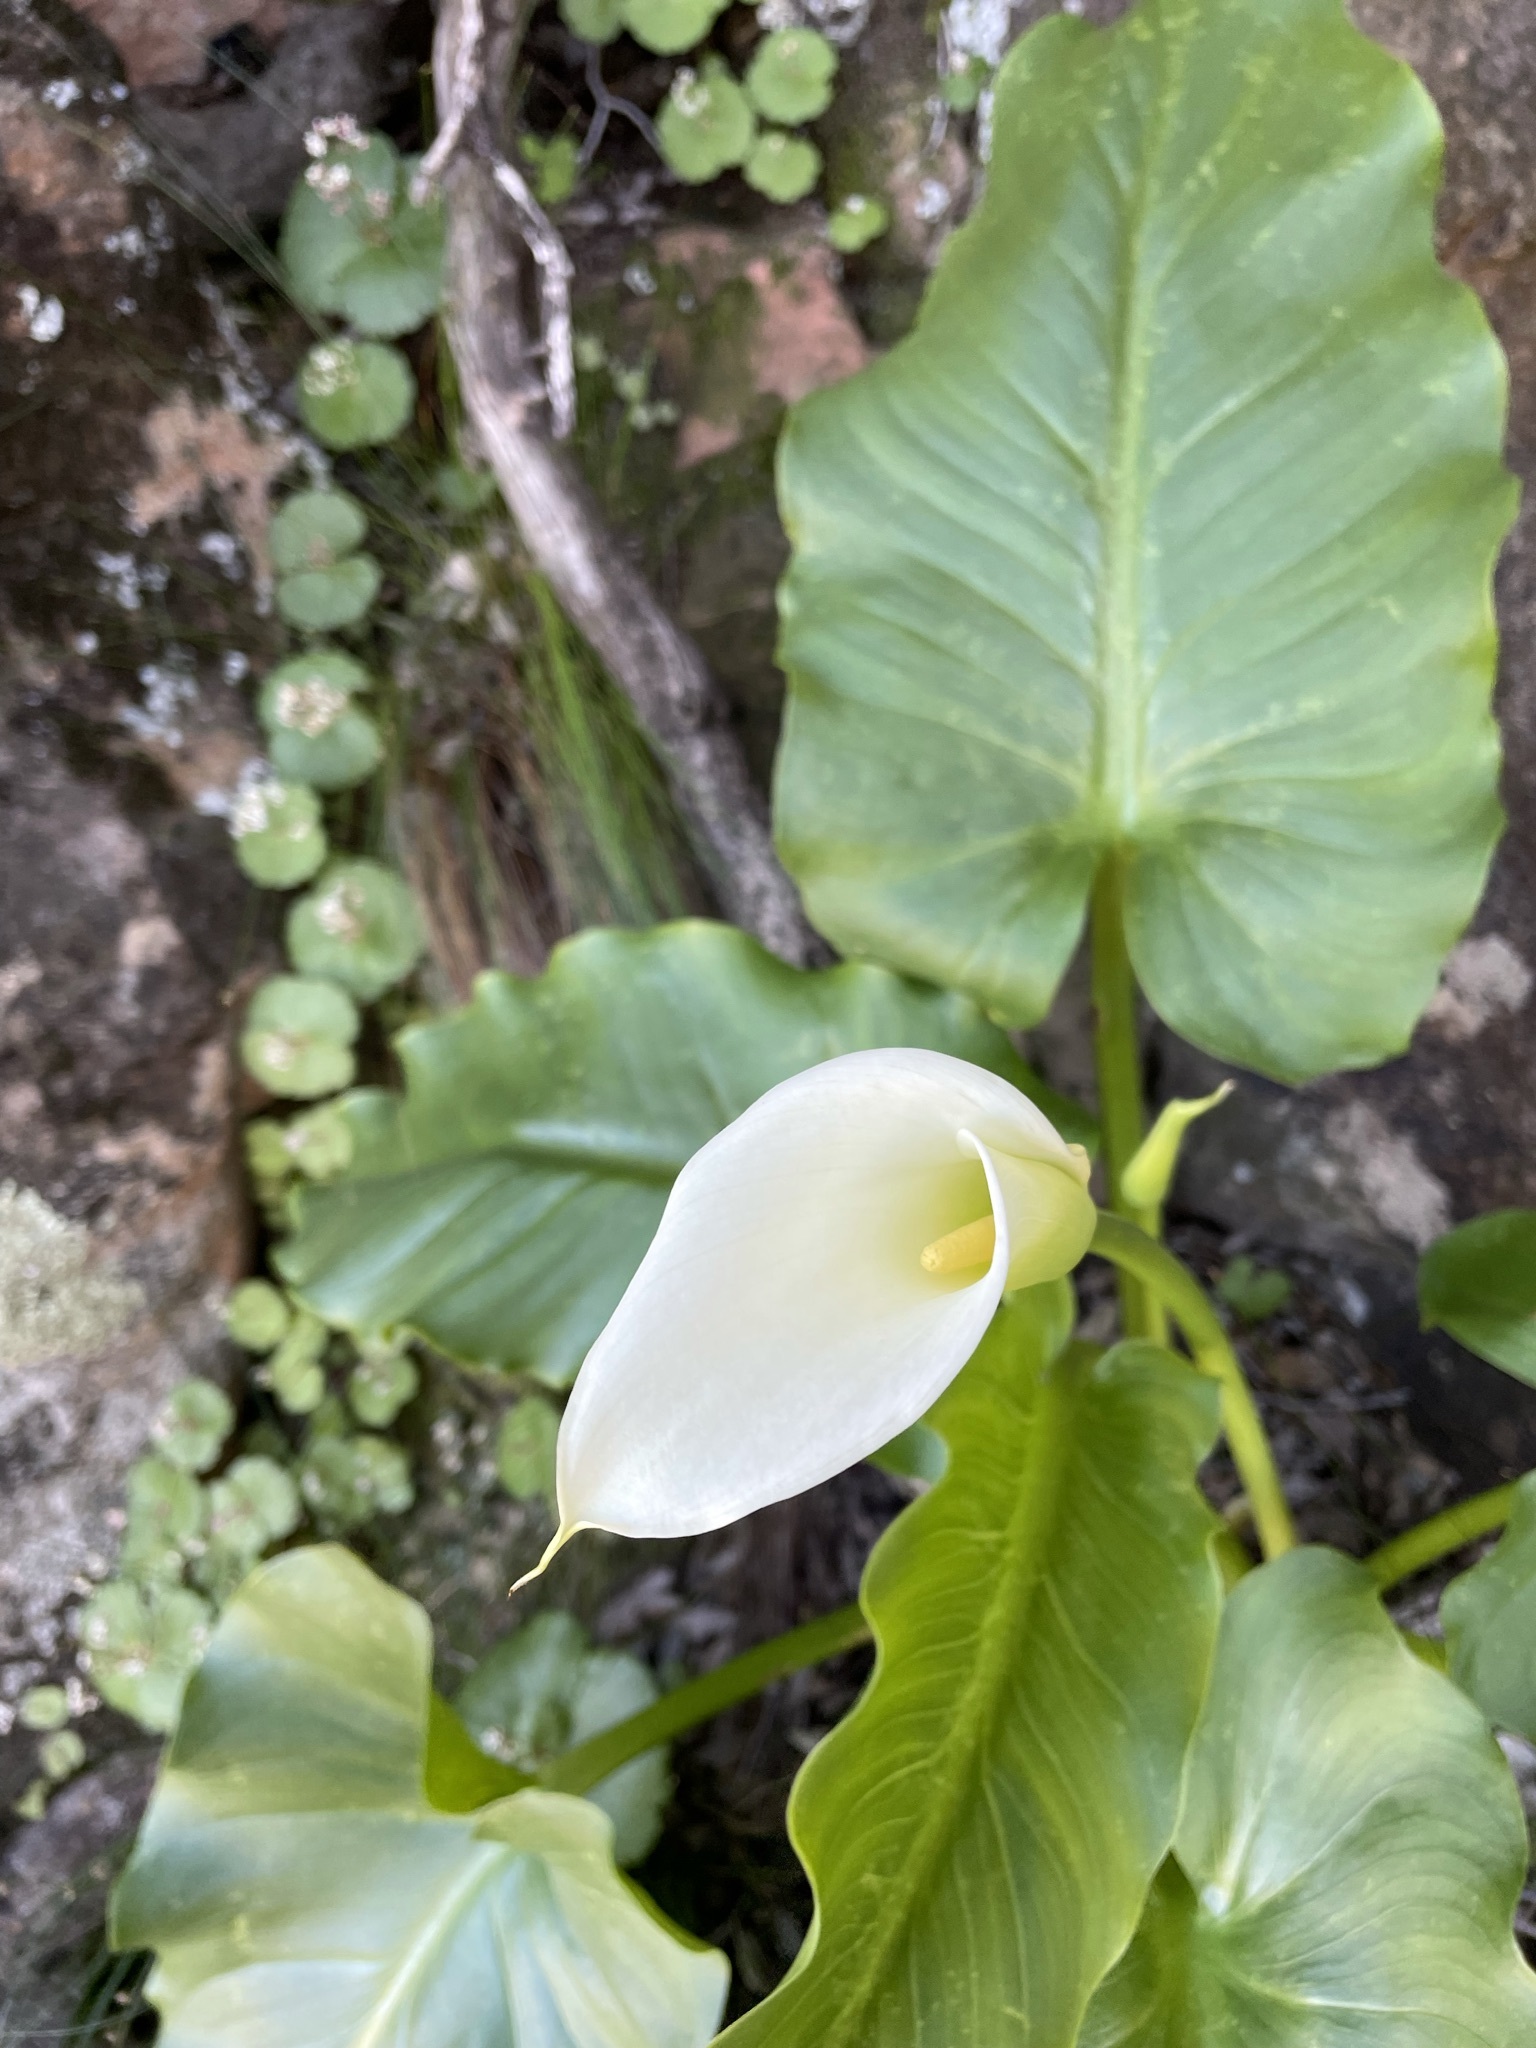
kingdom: Plantae
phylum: Tracheophyta
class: Liliopsida
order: Alismatales
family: Araceae
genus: Zantedeschia
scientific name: Zantedeschia aethiopica
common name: Altar-lily
